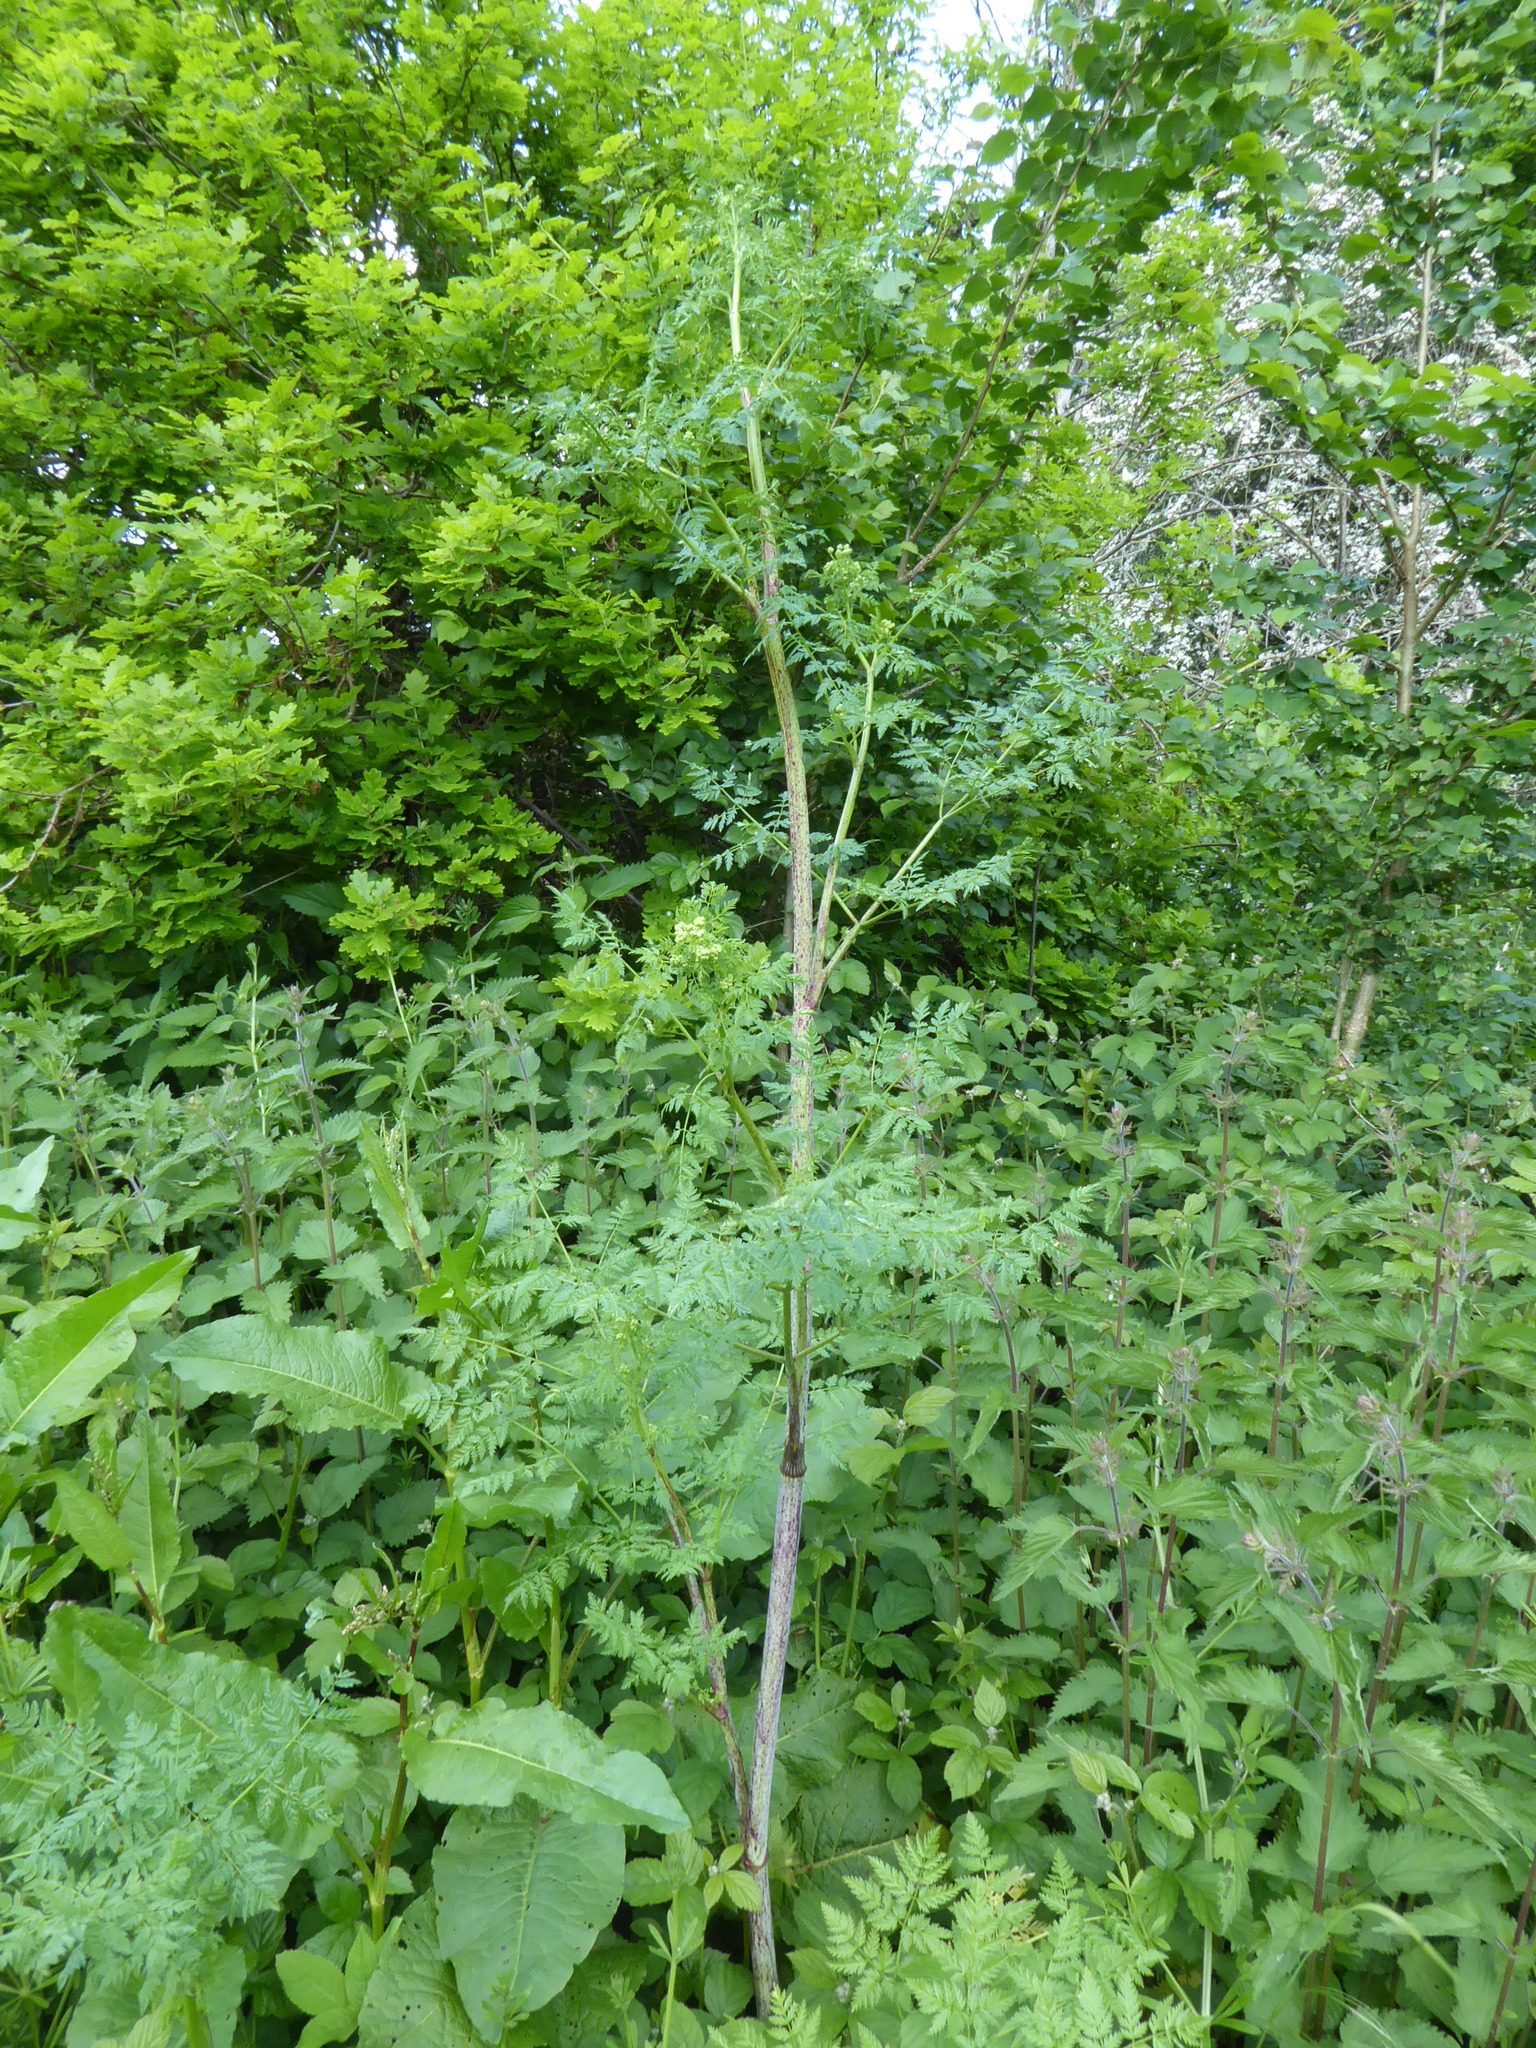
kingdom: Plantae
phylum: Tracheophyta
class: Magnoliopsida
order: Apiales
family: Apiaceae
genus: Conium
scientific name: Conium maculatum
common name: Hemlock
